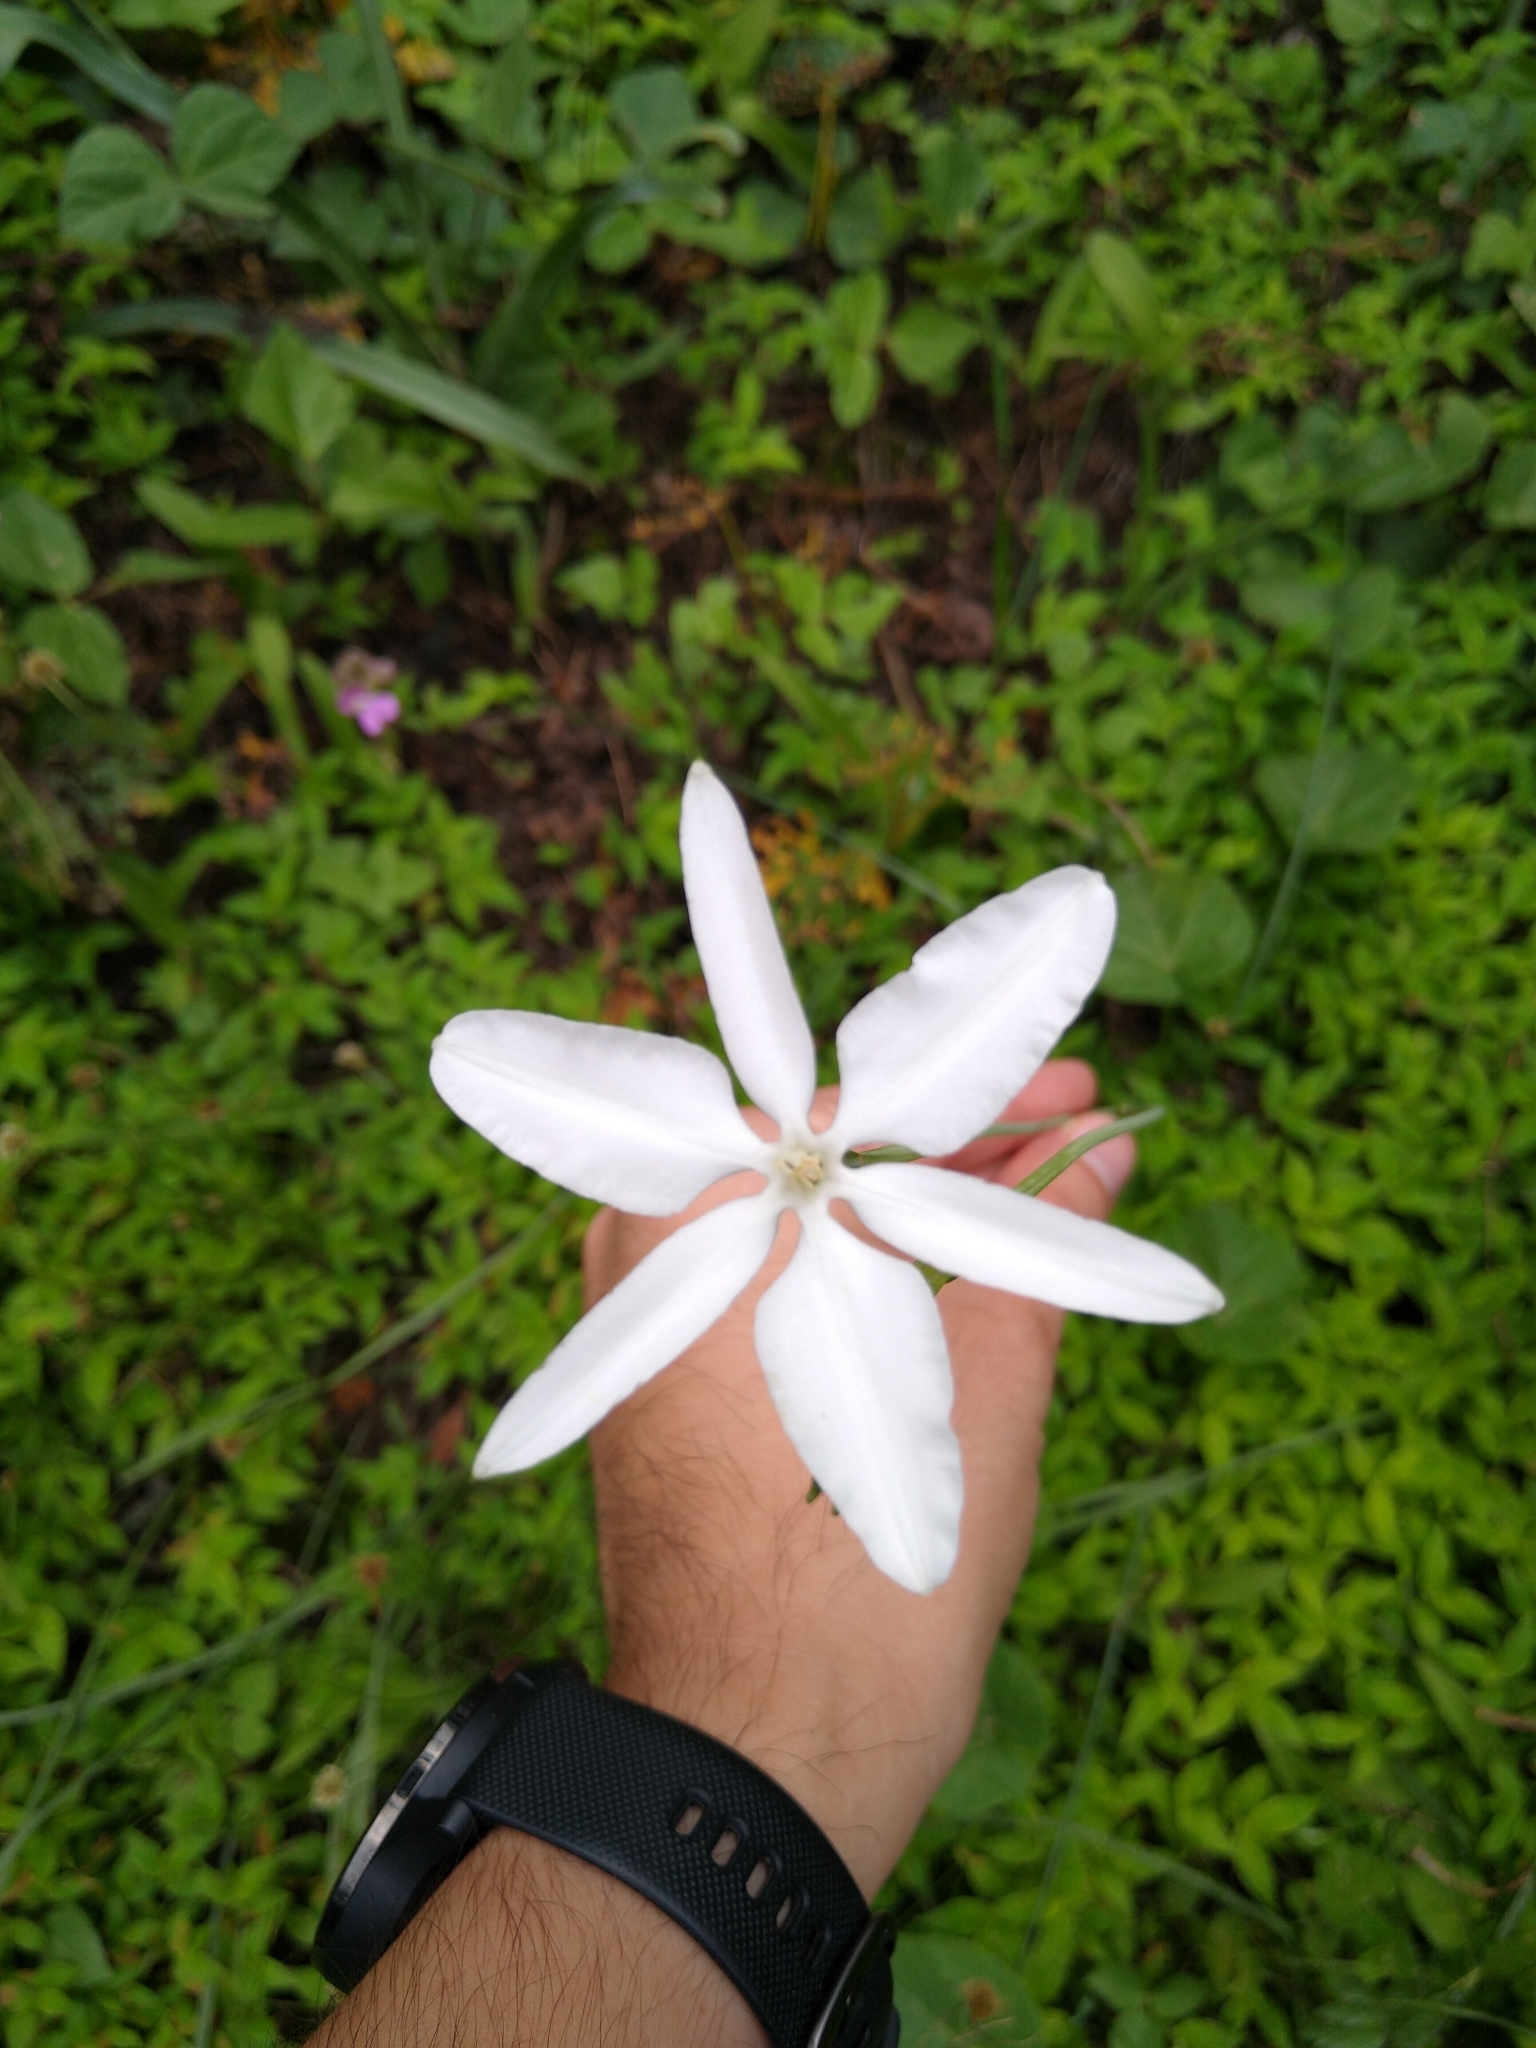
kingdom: Plantae
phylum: Tracheophyta
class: Liliopsida
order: Asparagales
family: Asparagaceae
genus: Milla
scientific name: Milla biflora
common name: Mexican-star
